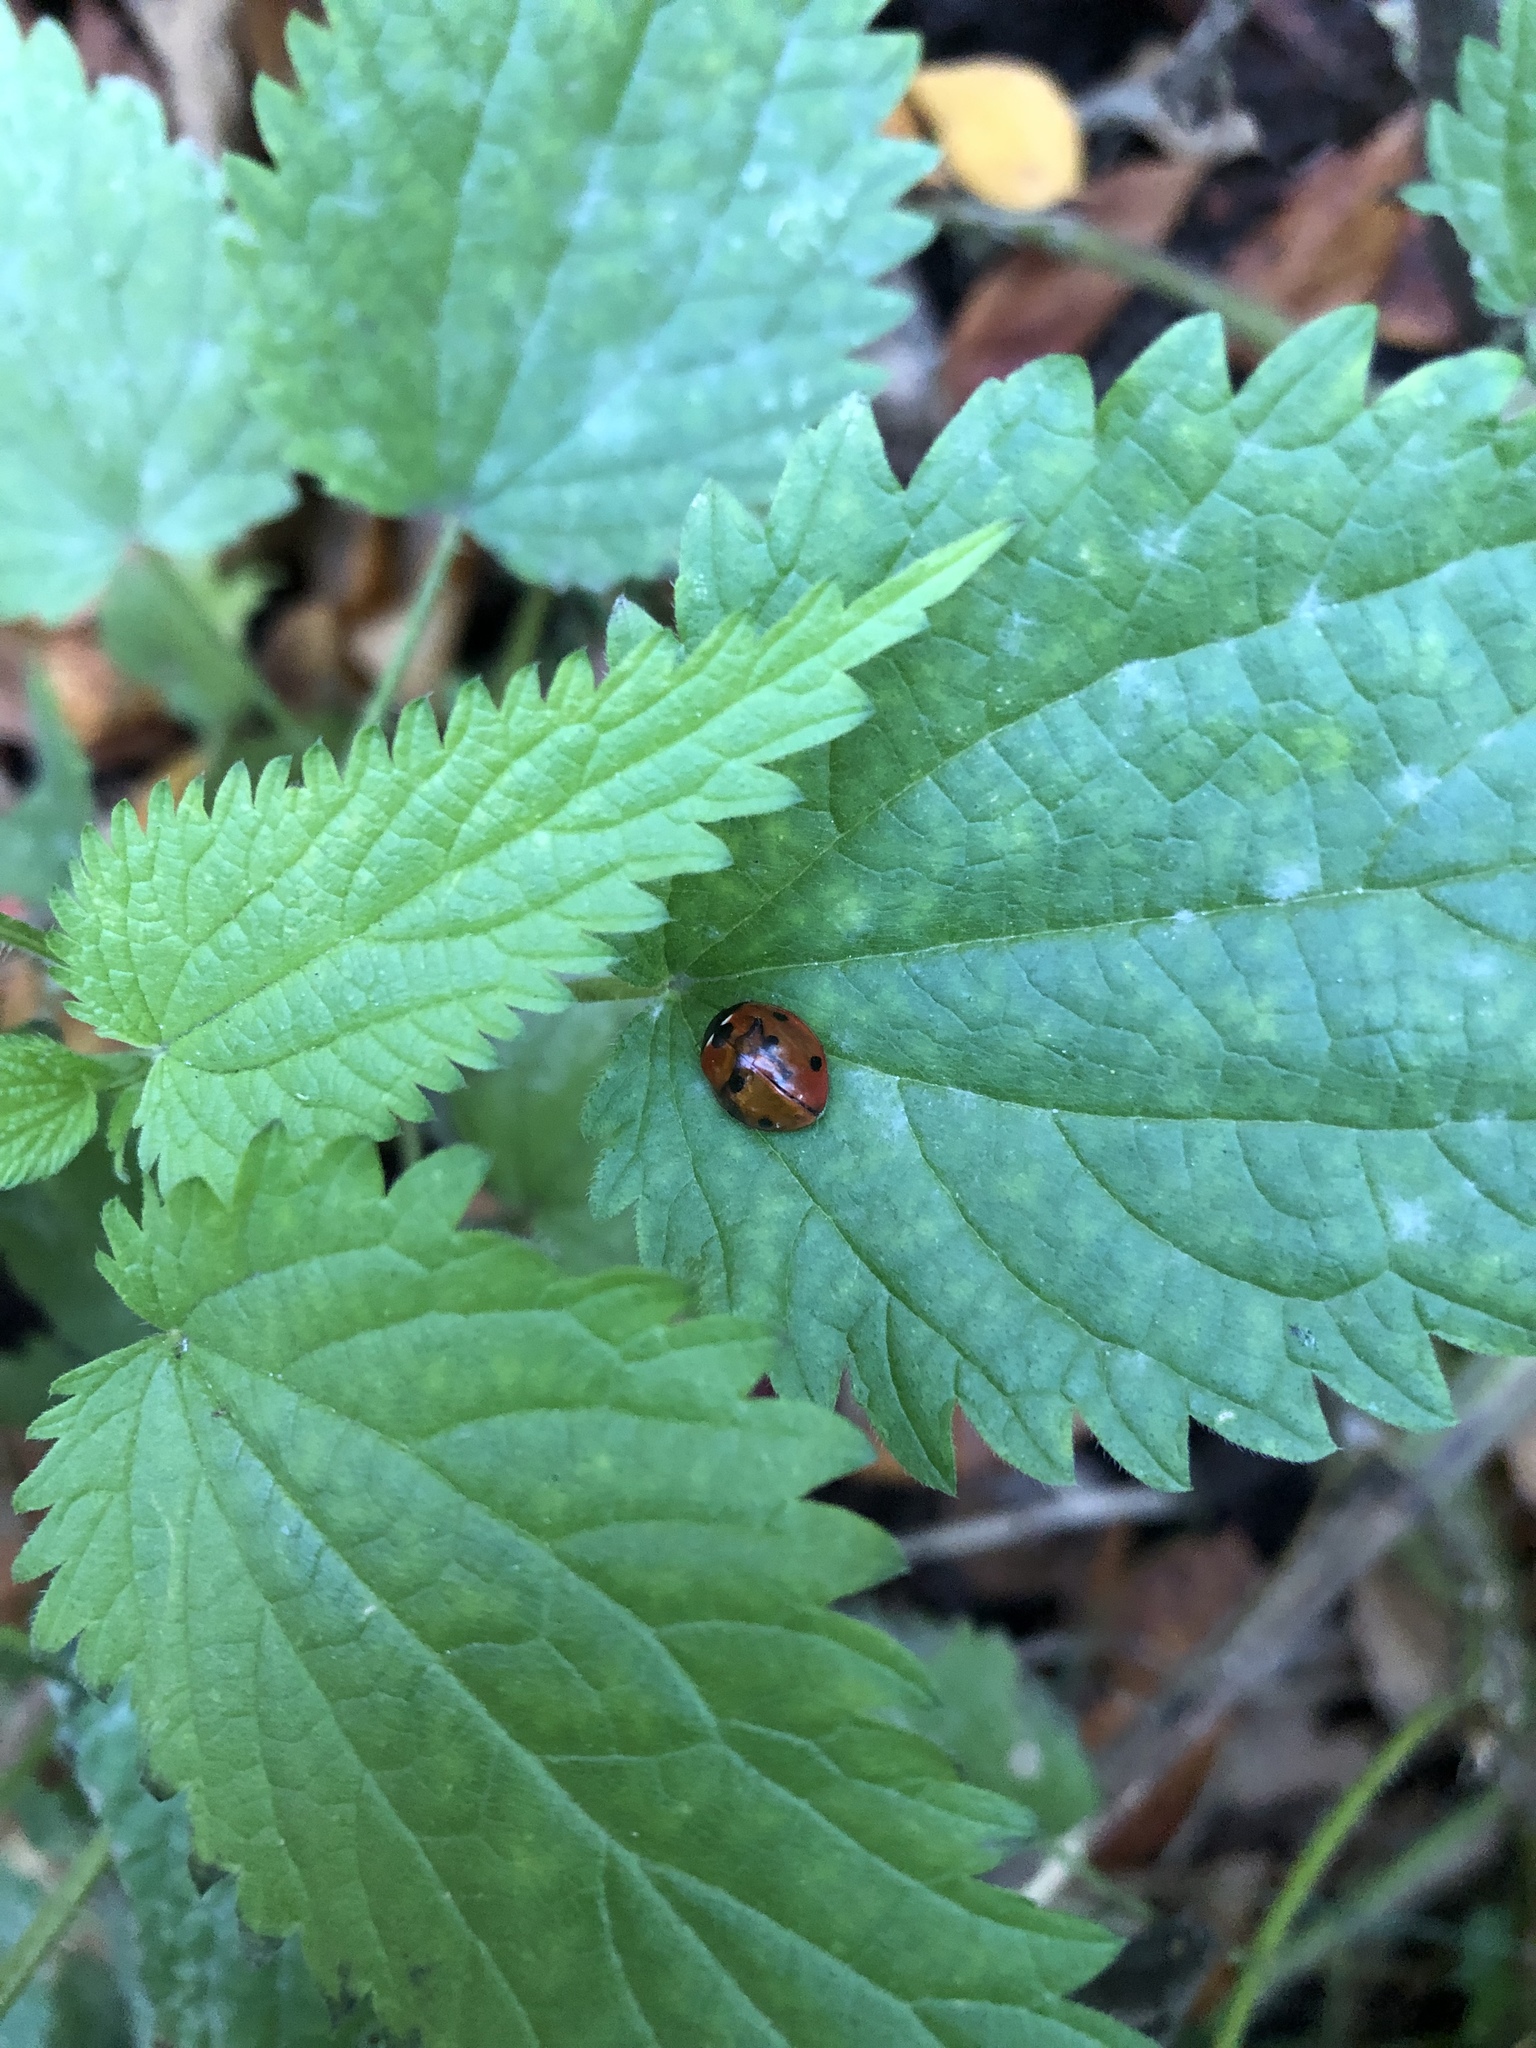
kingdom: Animalia
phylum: Arthropoda
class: Insecta
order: Coleoptera
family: Coccinellidae
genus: Coccinella
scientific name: Coccinella septempunctata
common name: Sevenspotted lady beetle
